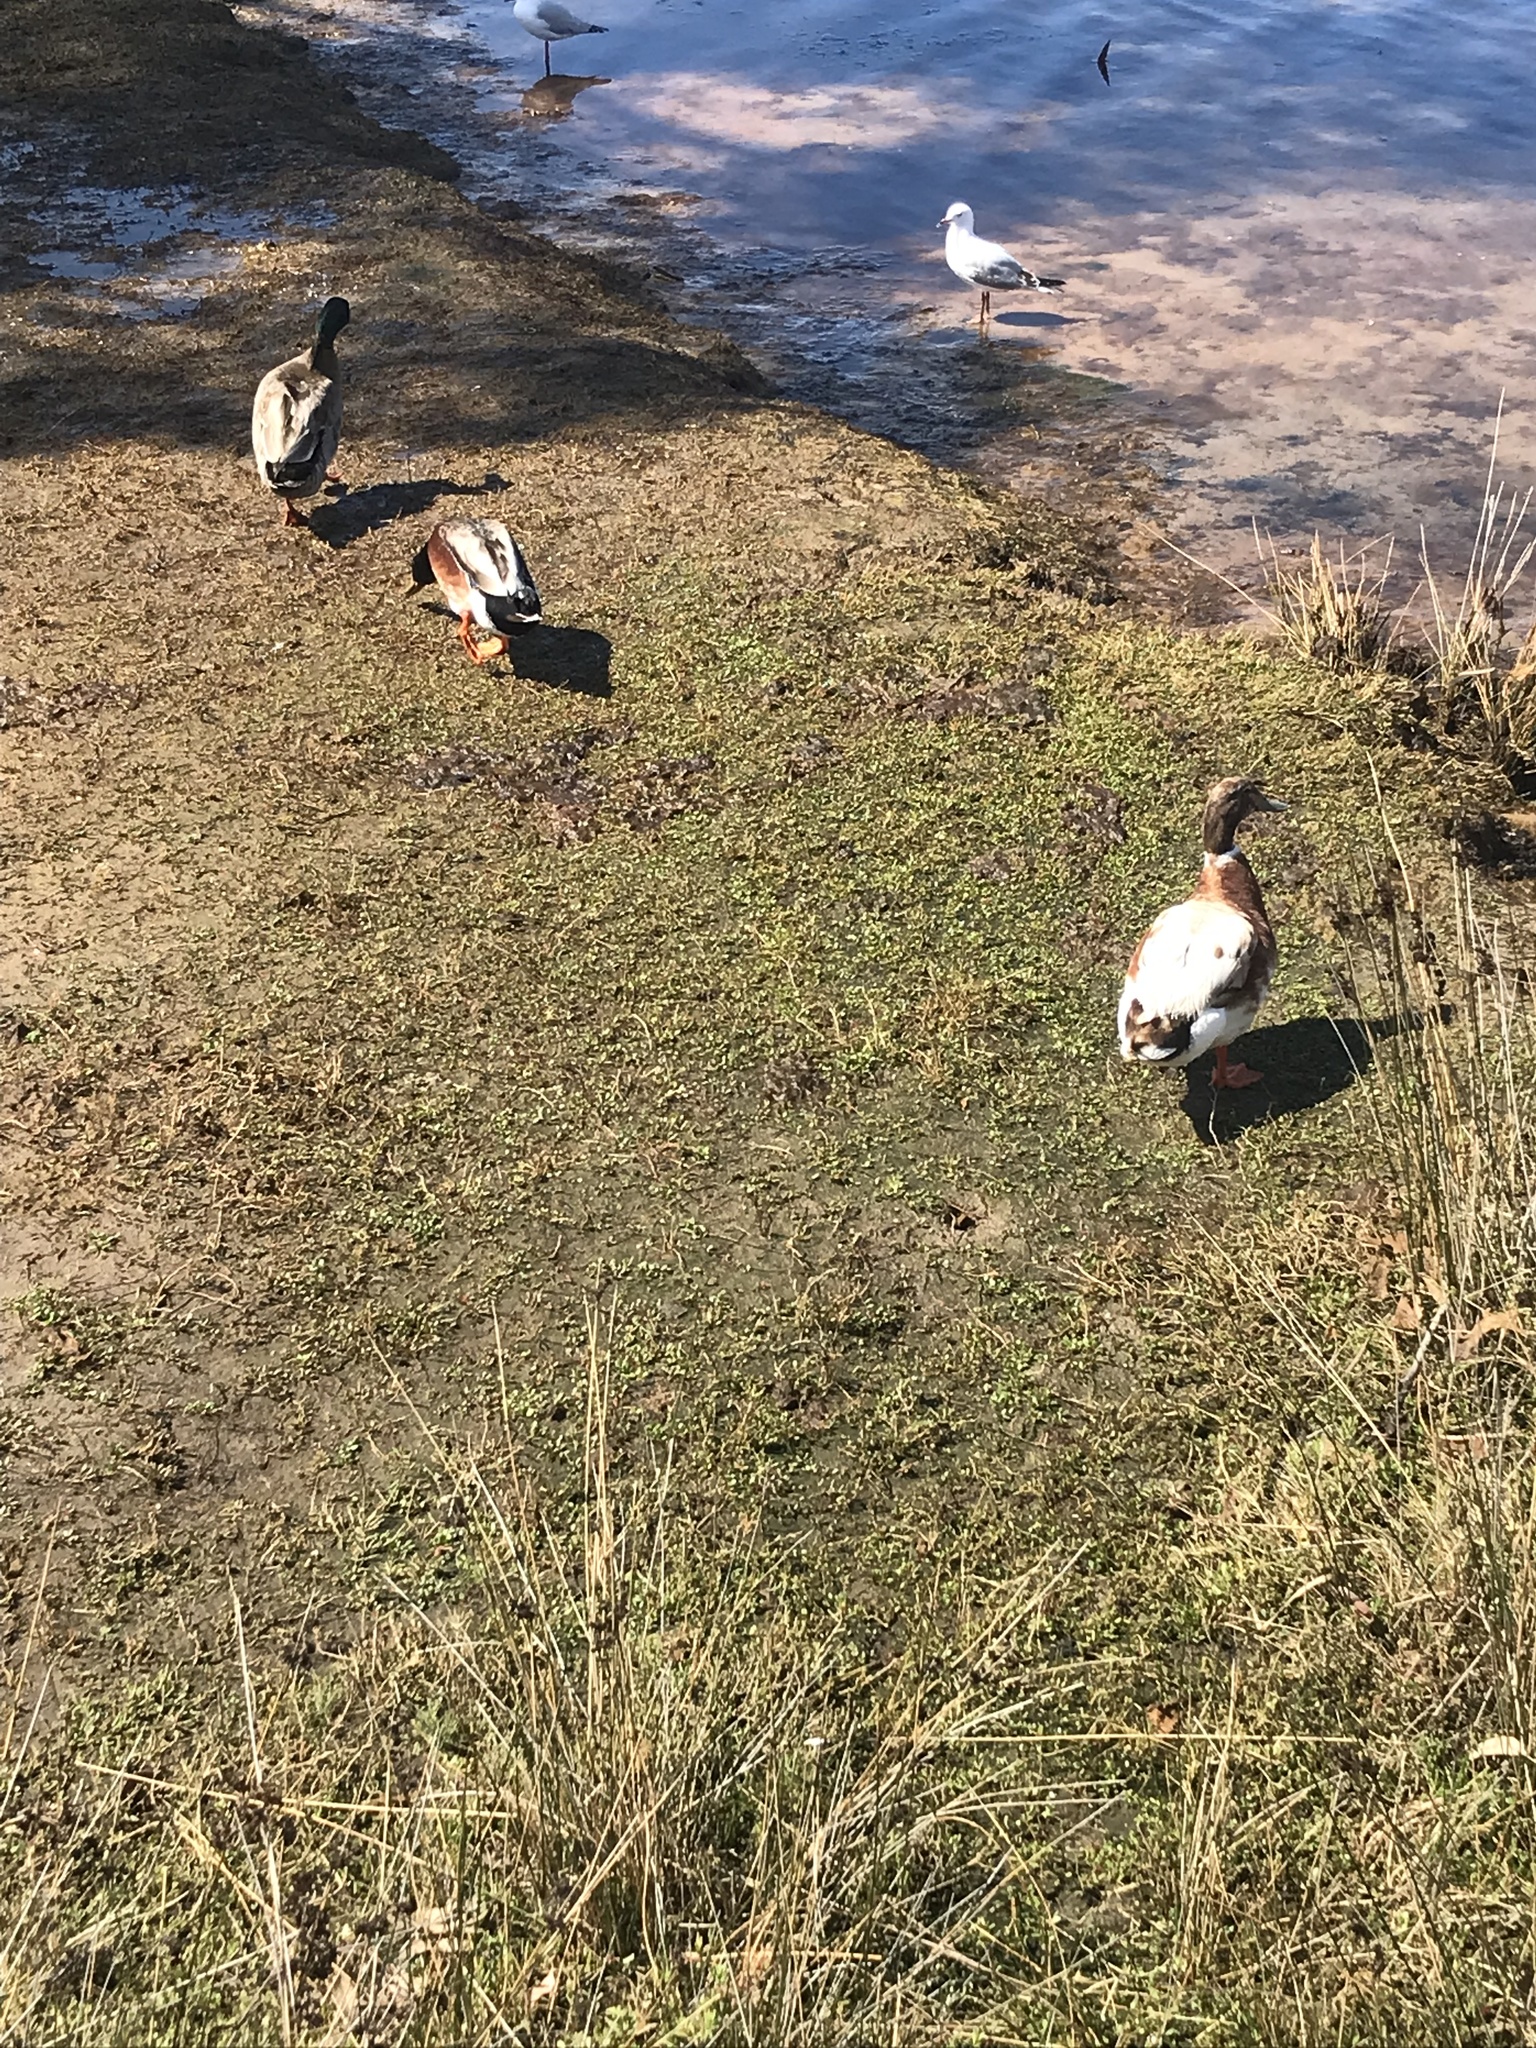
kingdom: Animalia
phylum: Chordata
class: Aves
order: Anseriformes
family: Anatidae
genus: Anas
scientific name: Anas platyrhynchos
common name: Mallard
